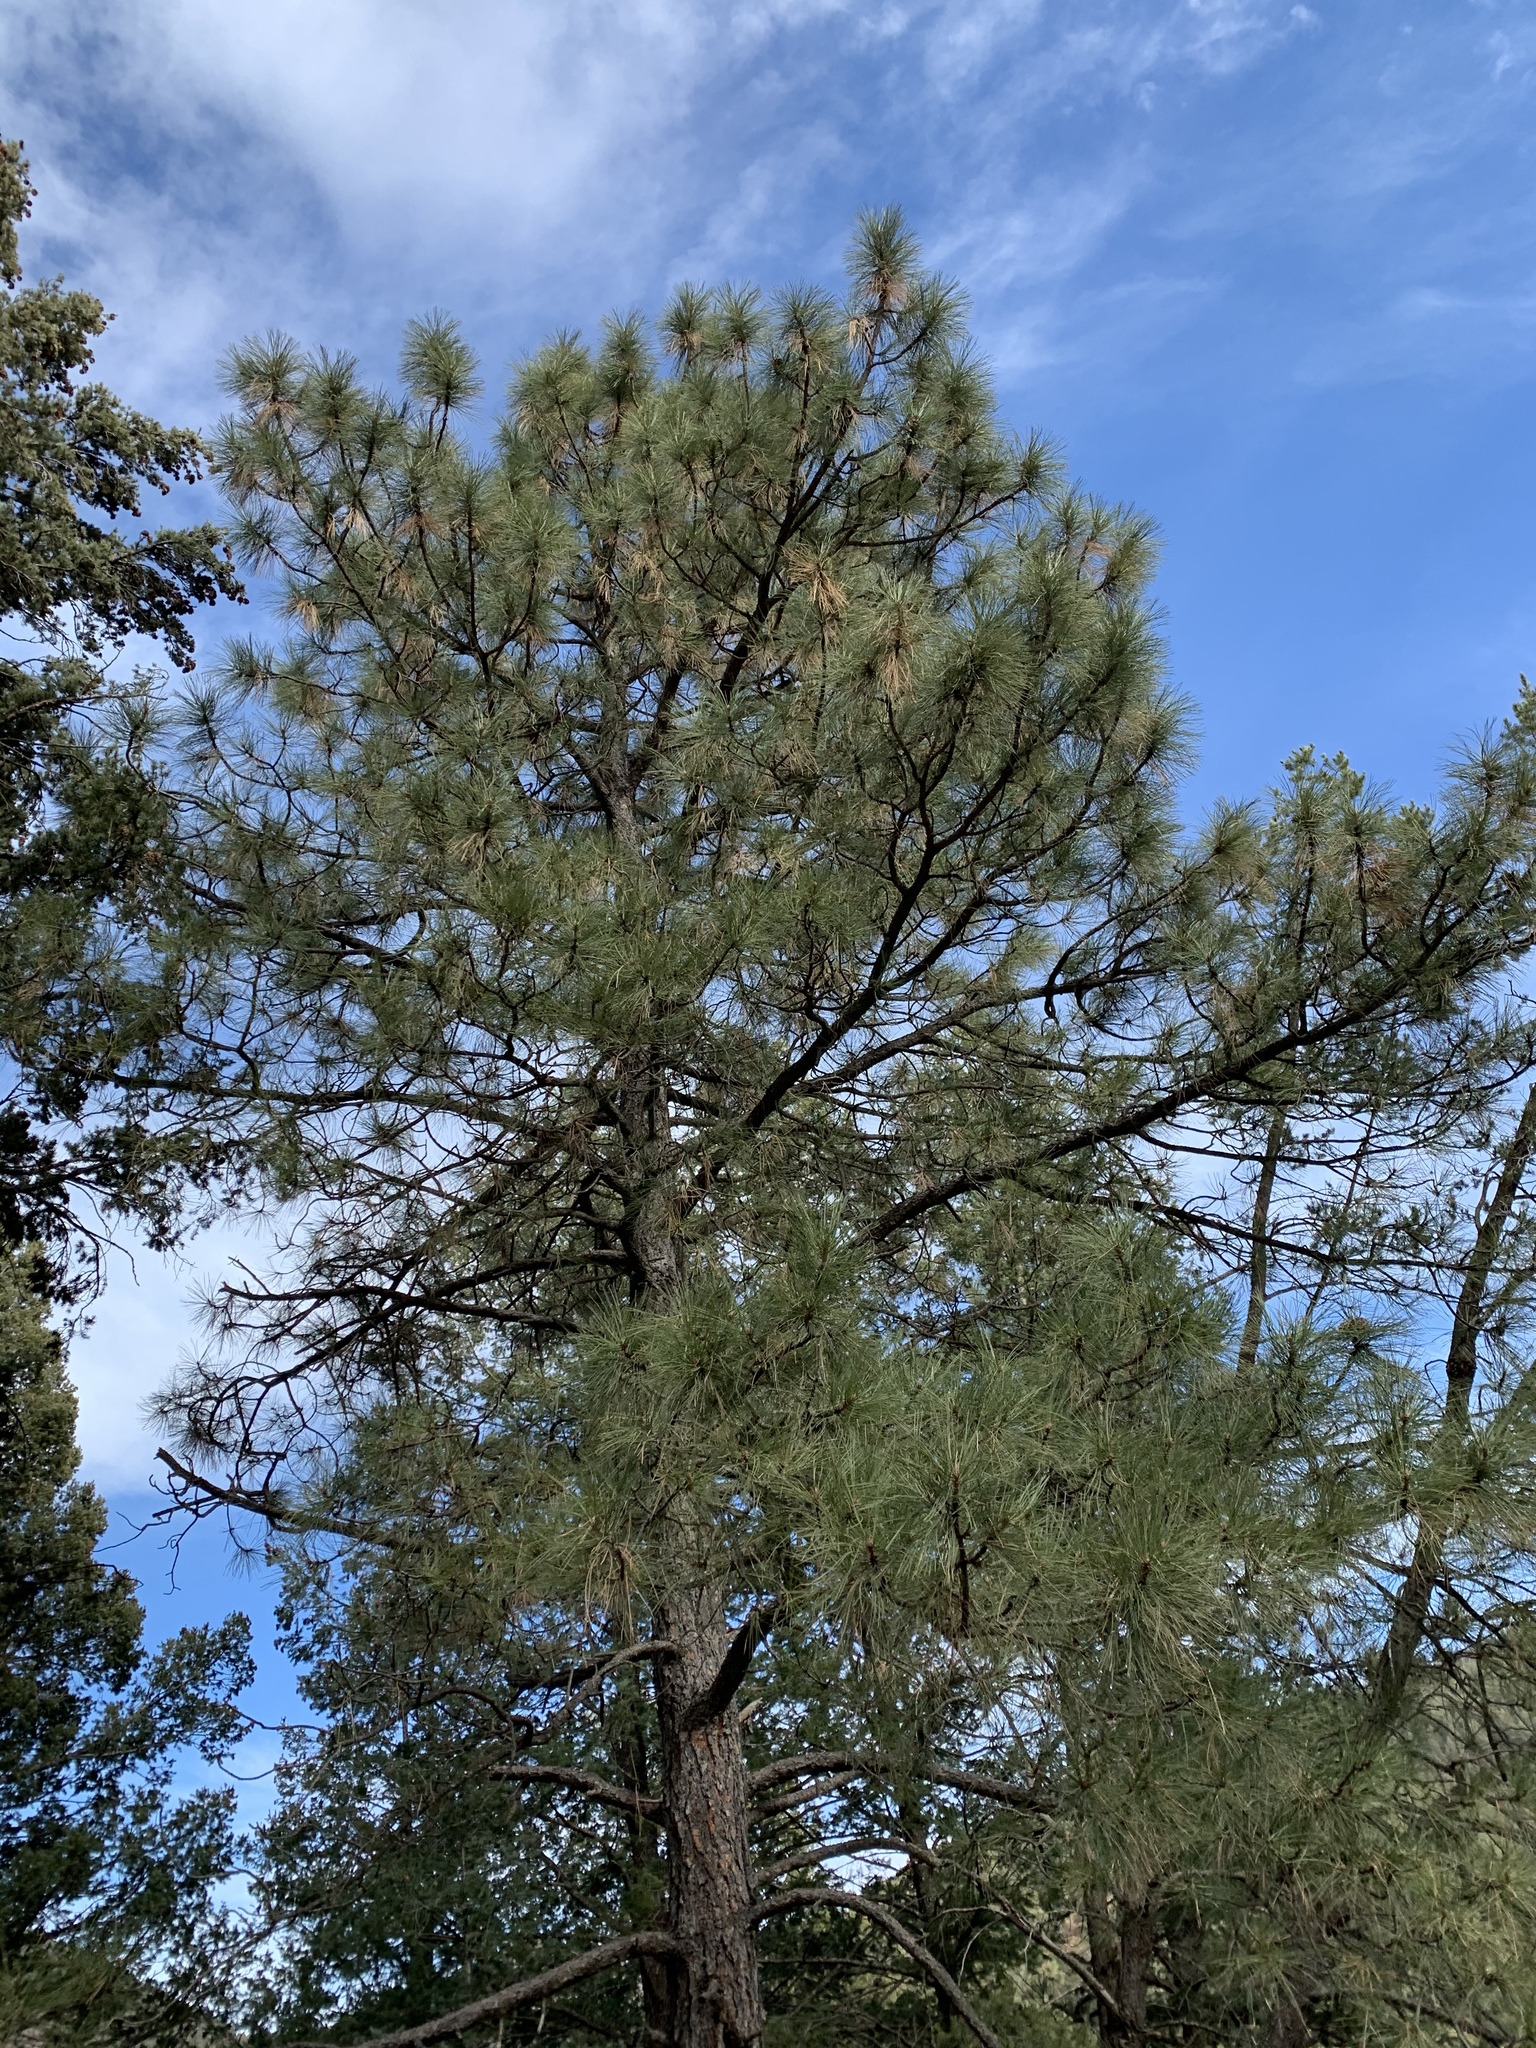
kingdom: Plantae
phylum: Tracheophyta
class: Pinopsida
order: Pinales
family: Pinaceae
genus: Pinus
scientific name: Pinus ponderosa
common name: Western yellow-pine
